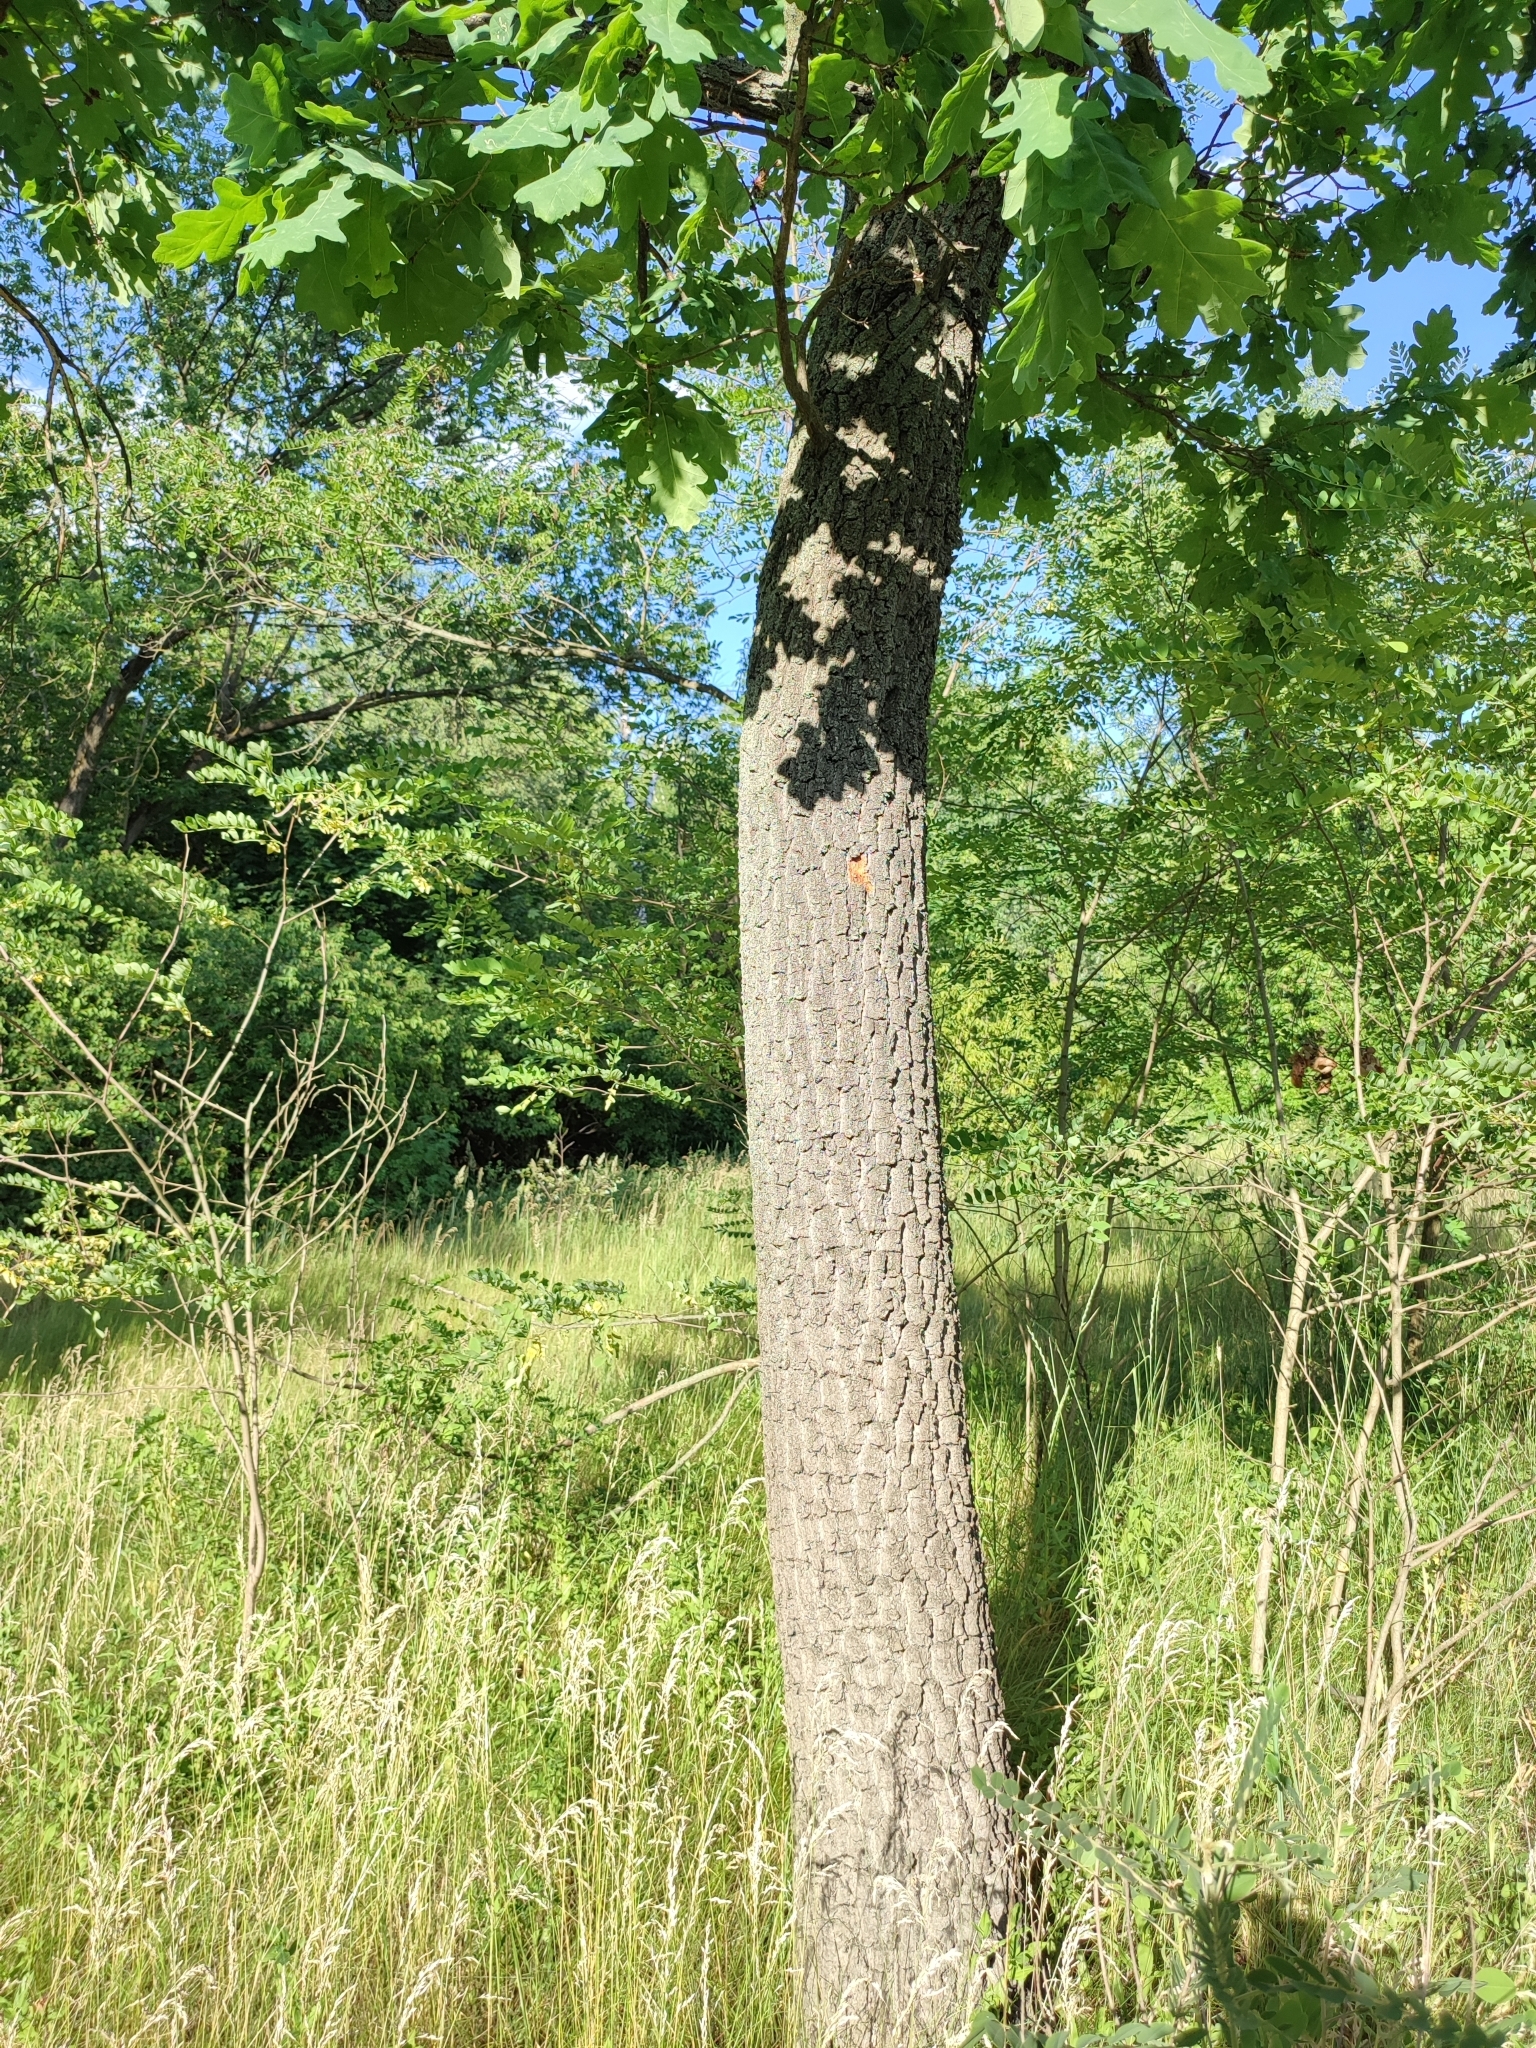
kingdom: Plantae
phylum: Tracheophyta
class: Magnoliopsida
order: Fagales
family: Fagaceae
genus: Quercus
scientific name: Quercus robur
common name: Pedunculate oak
